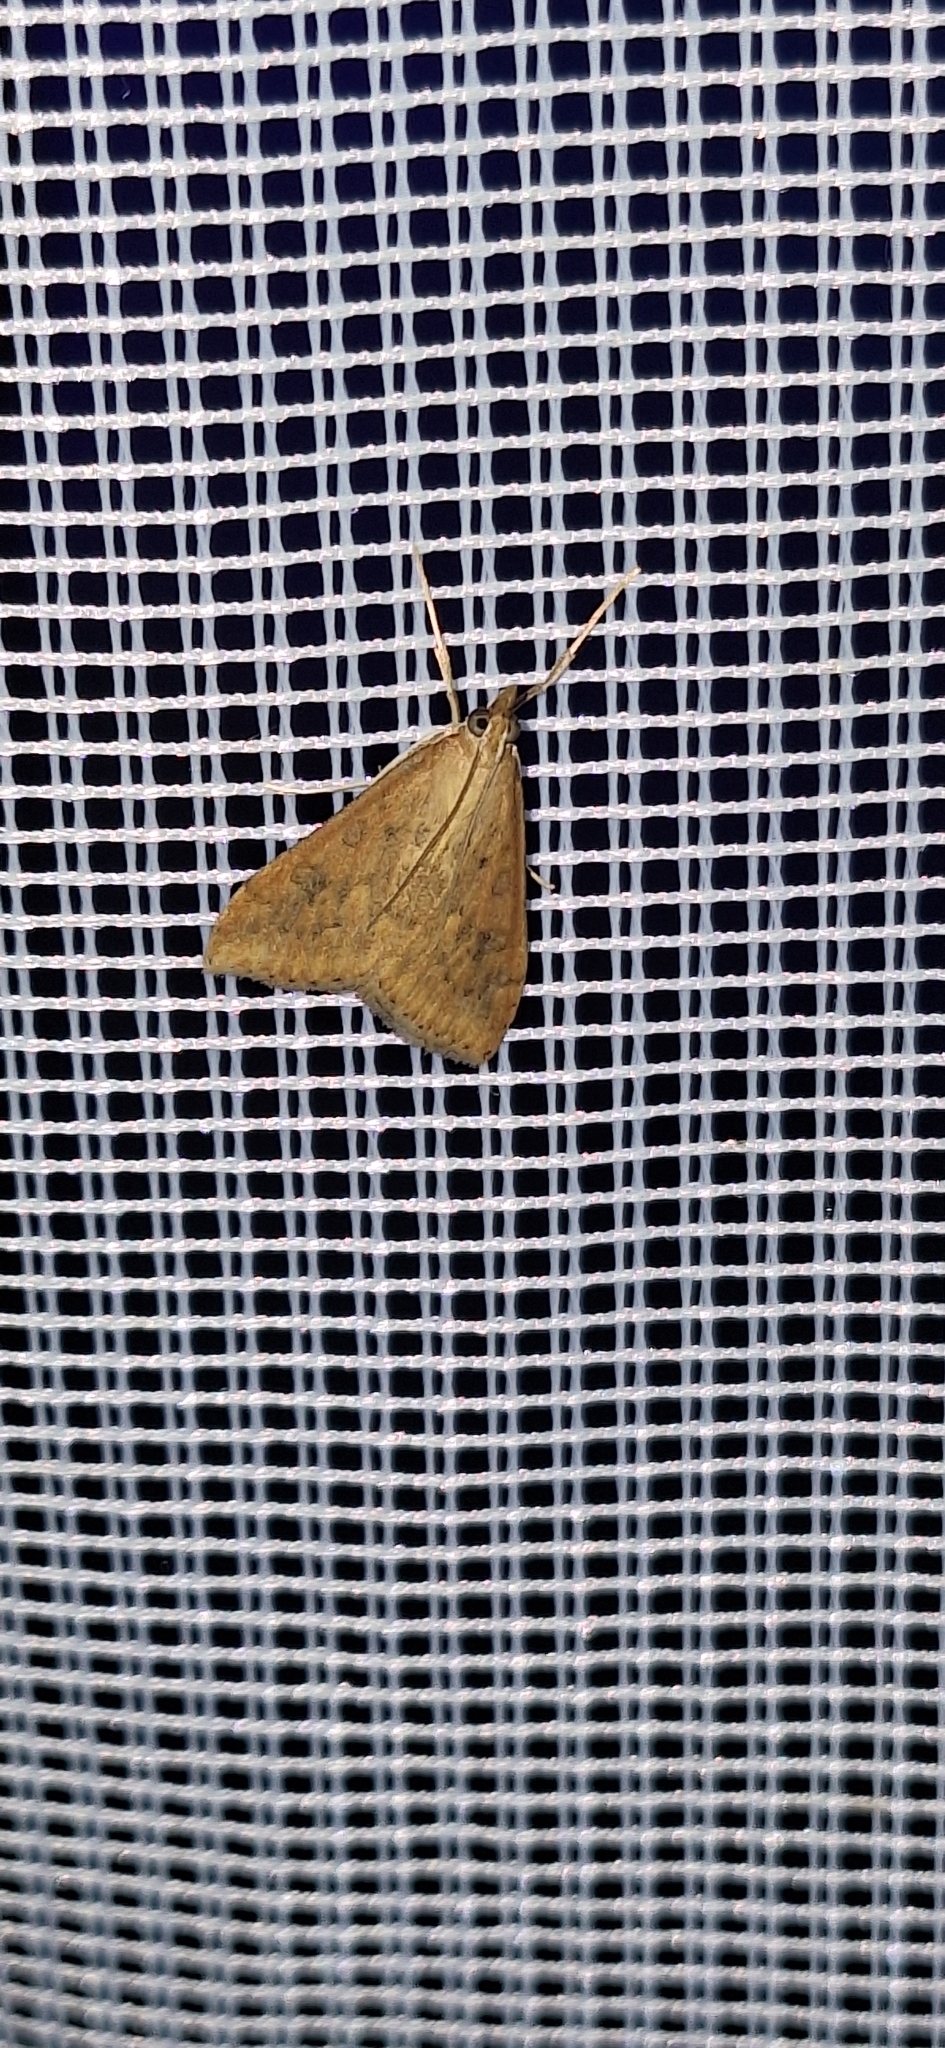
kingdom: Animalia
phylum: Arthropoda
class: Insecta
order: Lepidoptera
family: Crambidae
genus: Udea
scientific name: Udea ferrugalis
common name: Rusty dot
